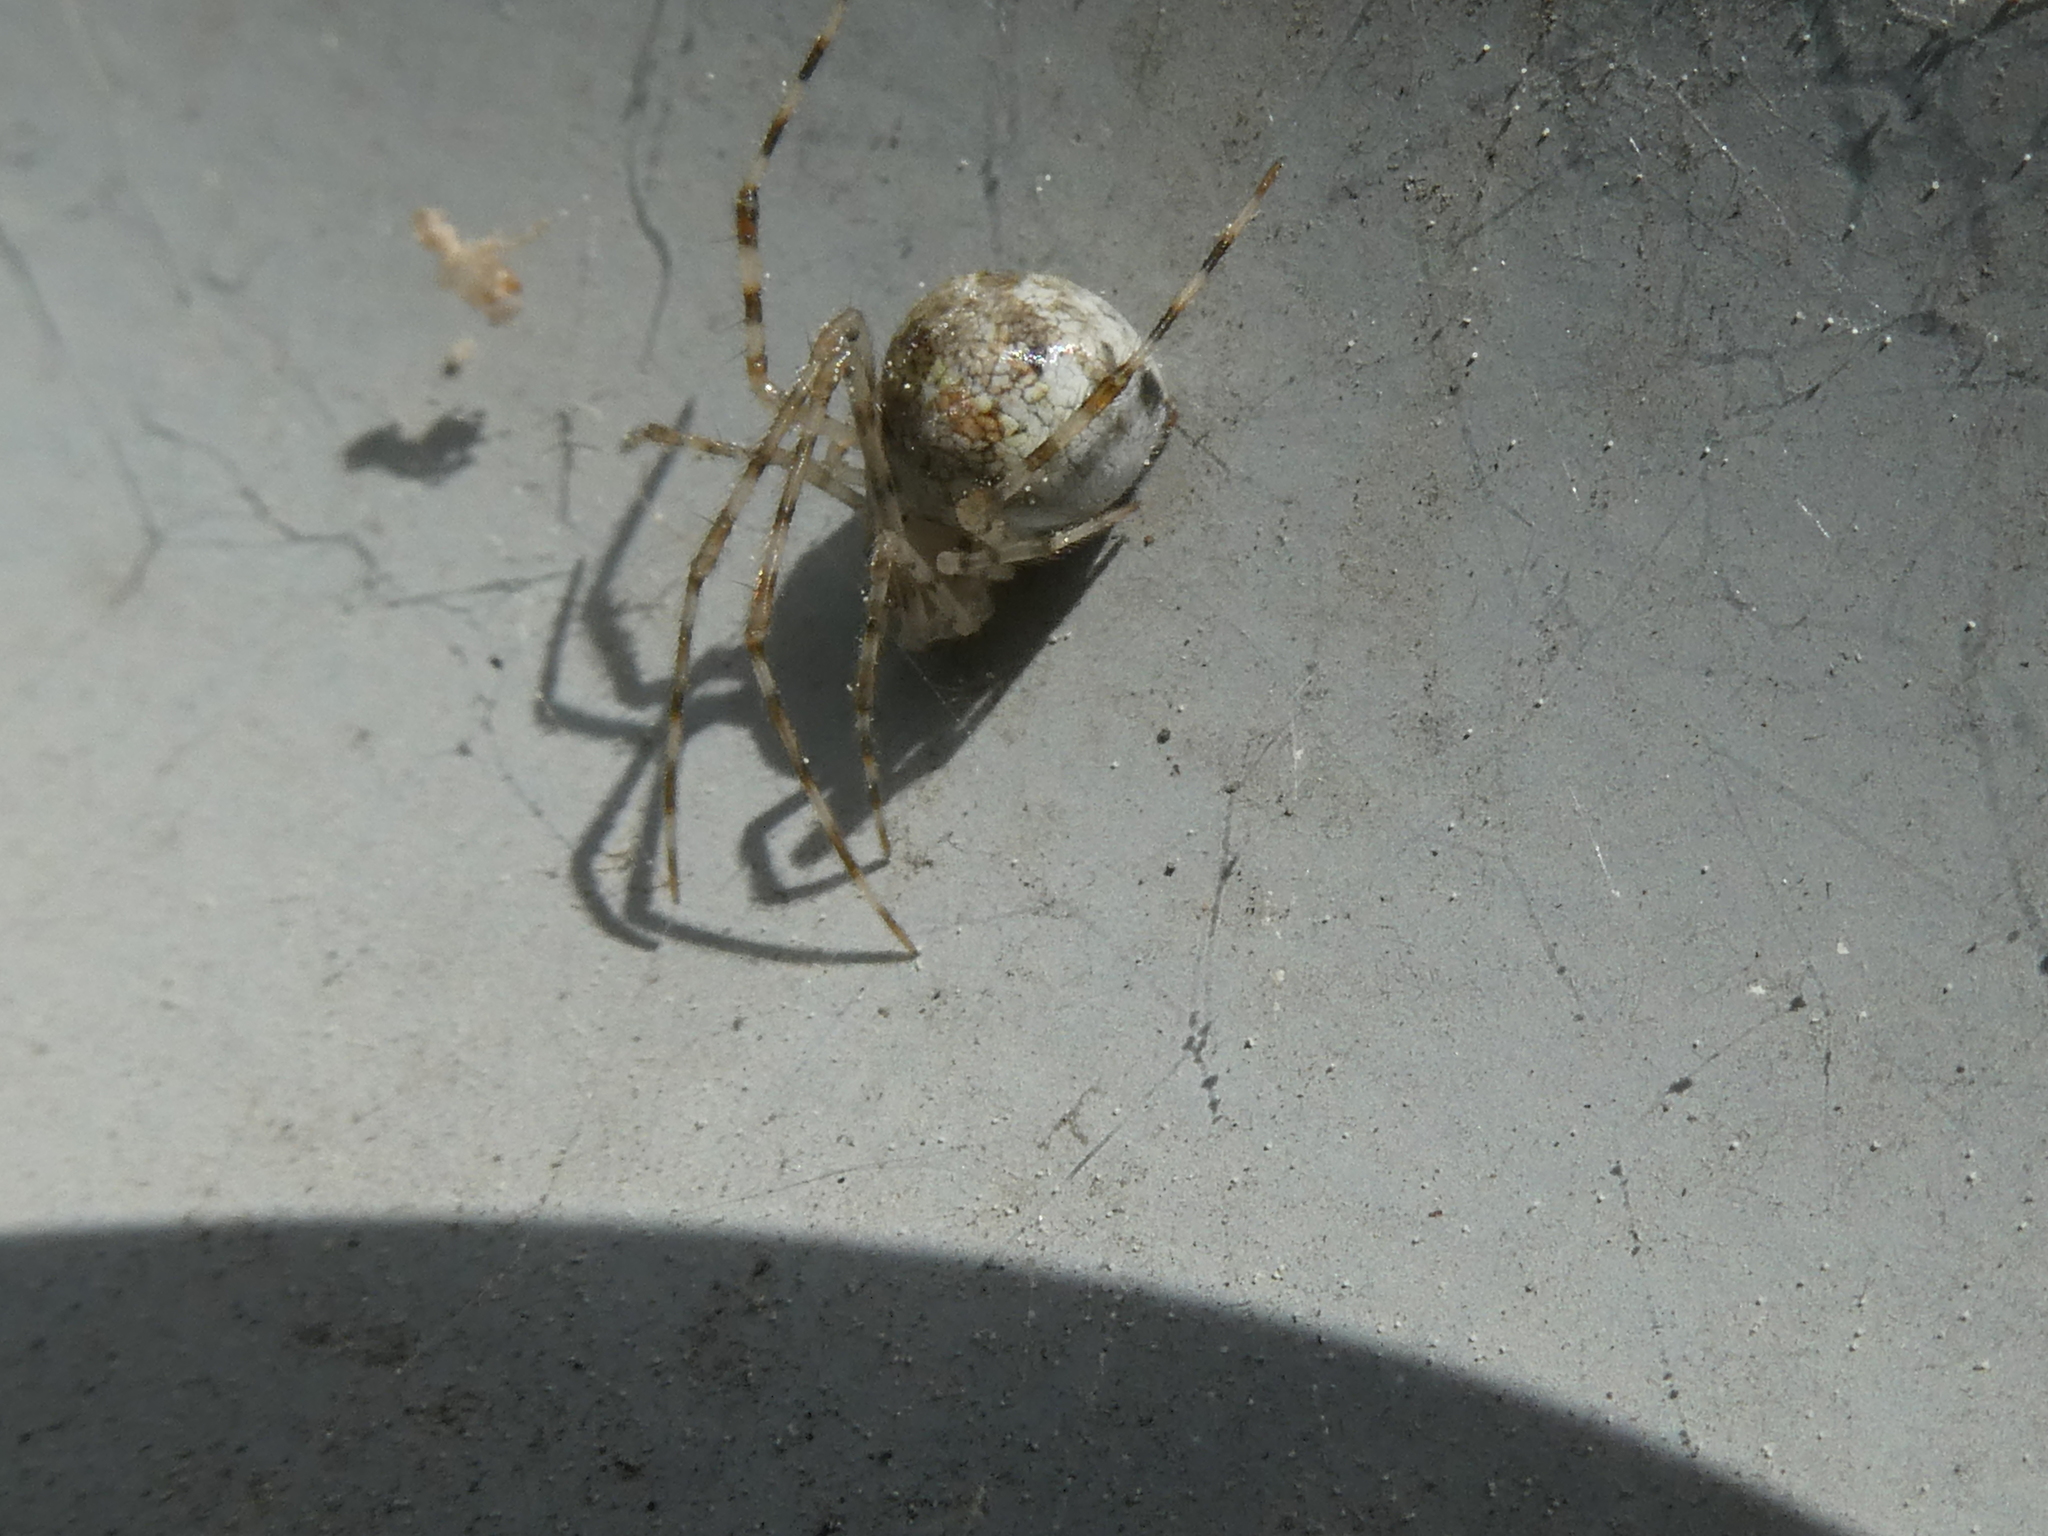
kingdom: Animalia
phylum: Arthropoda
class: Arachnida
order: Araneae
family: Theridiidae
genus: Cryptachaea
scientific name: Cryptachaea gigantipes
